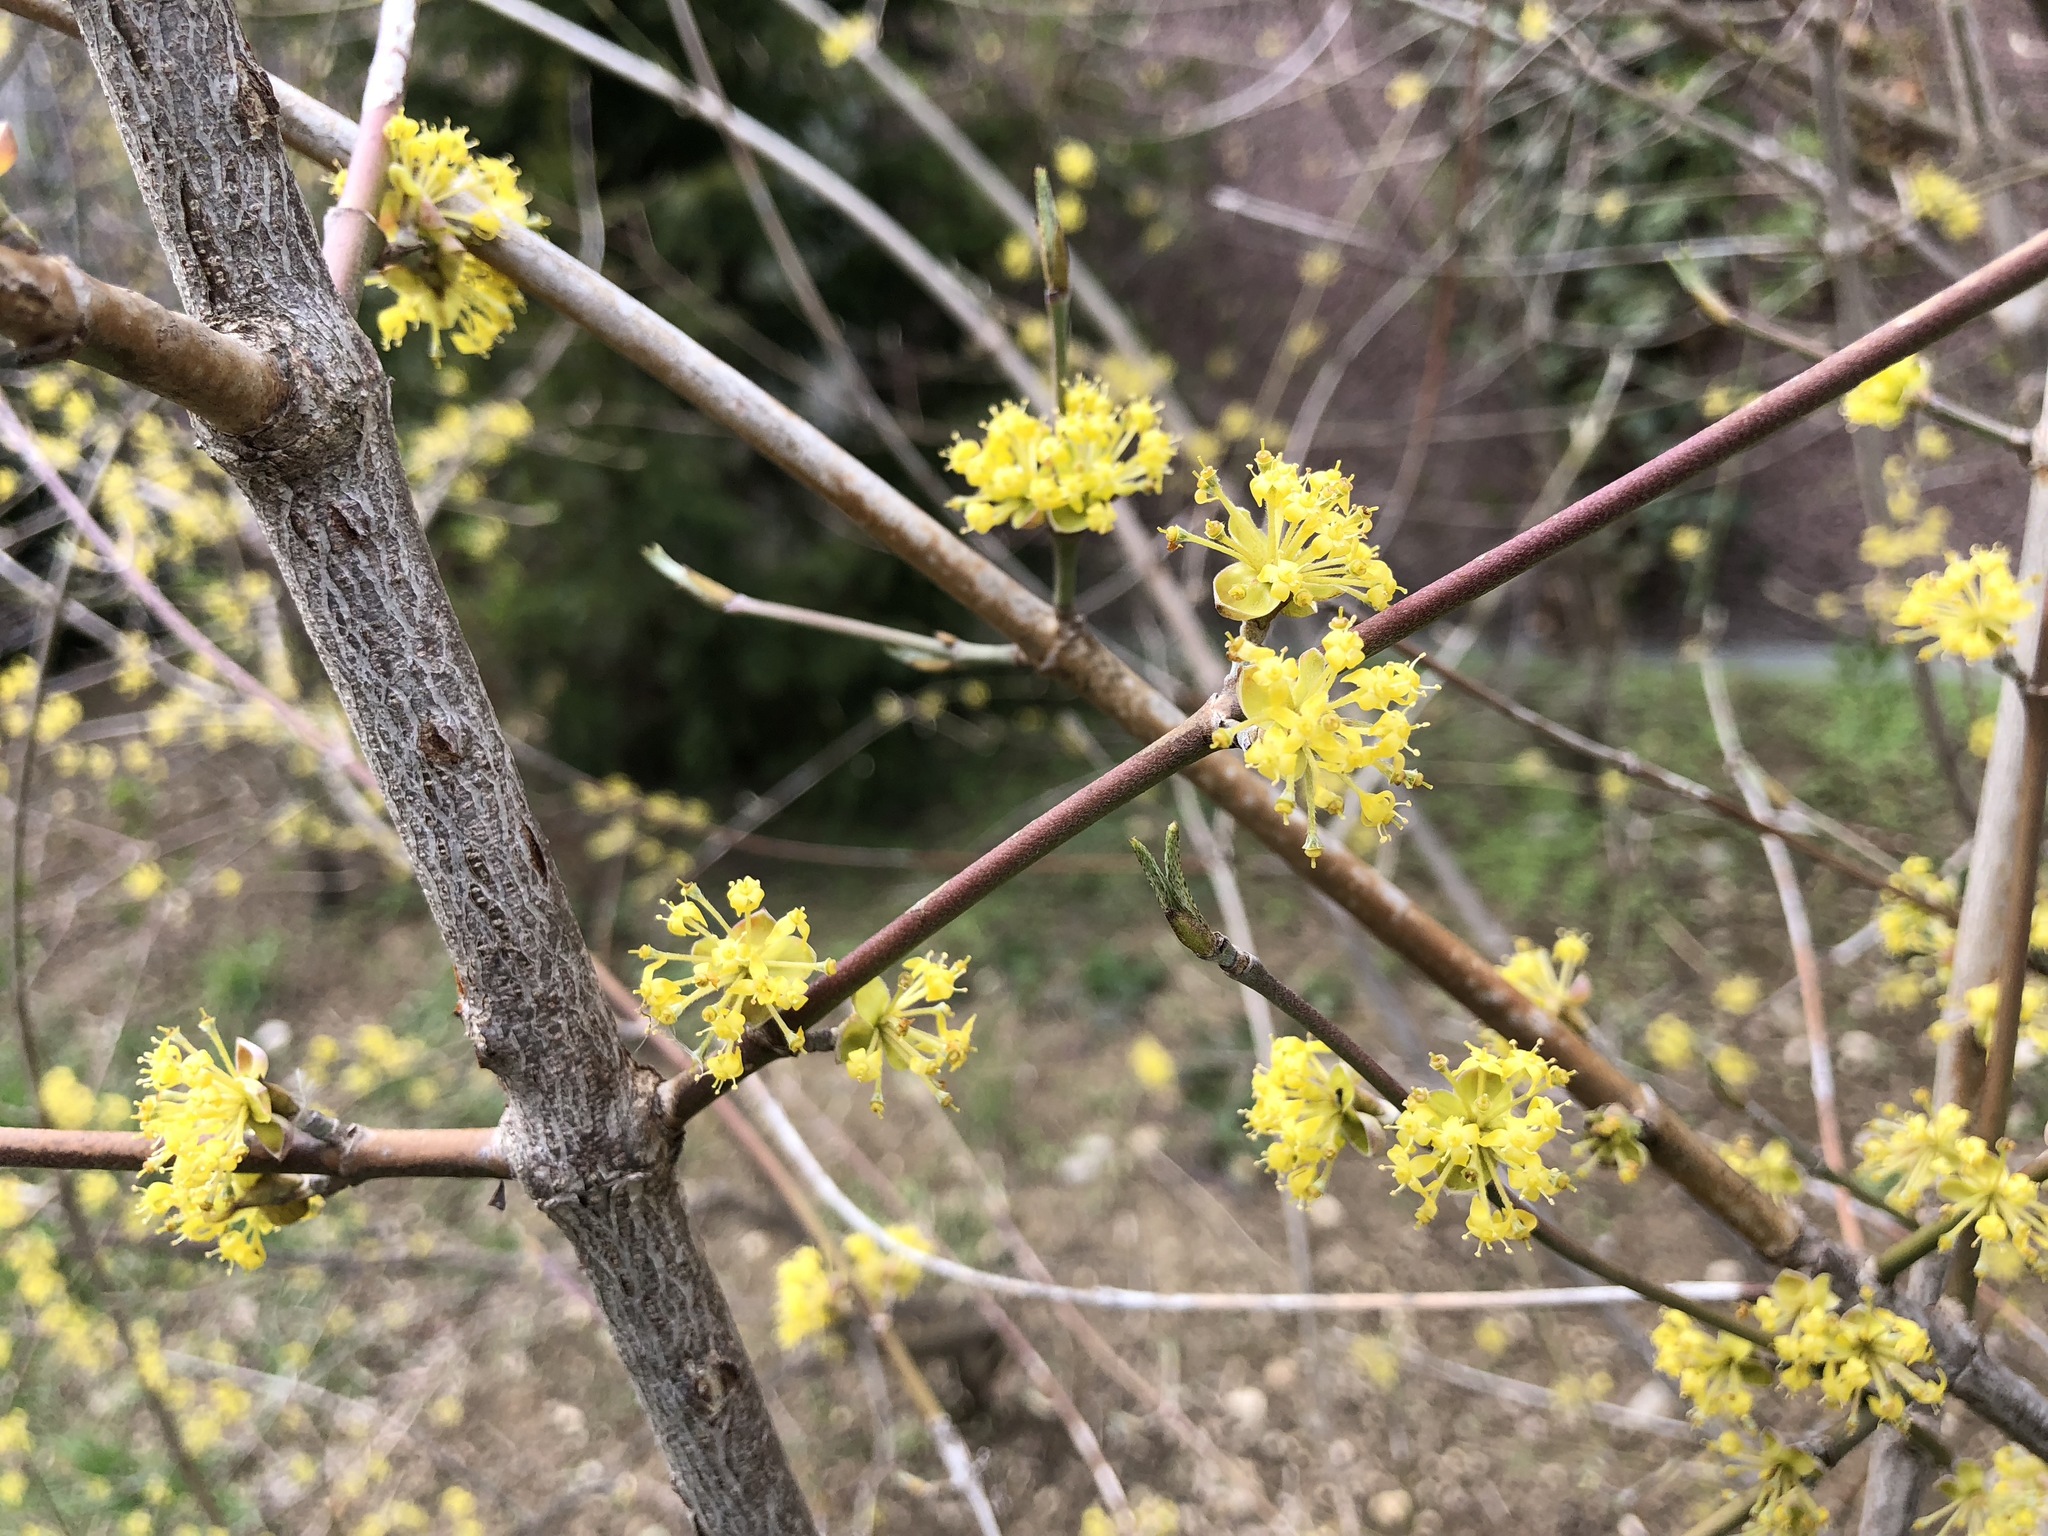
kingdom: Plantae
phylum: Tracheophyta
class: Magnoliopsida
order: Cornales
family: Cornaceae
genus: Cornus
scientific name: Cornus mas
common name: Cornelian-cherry
